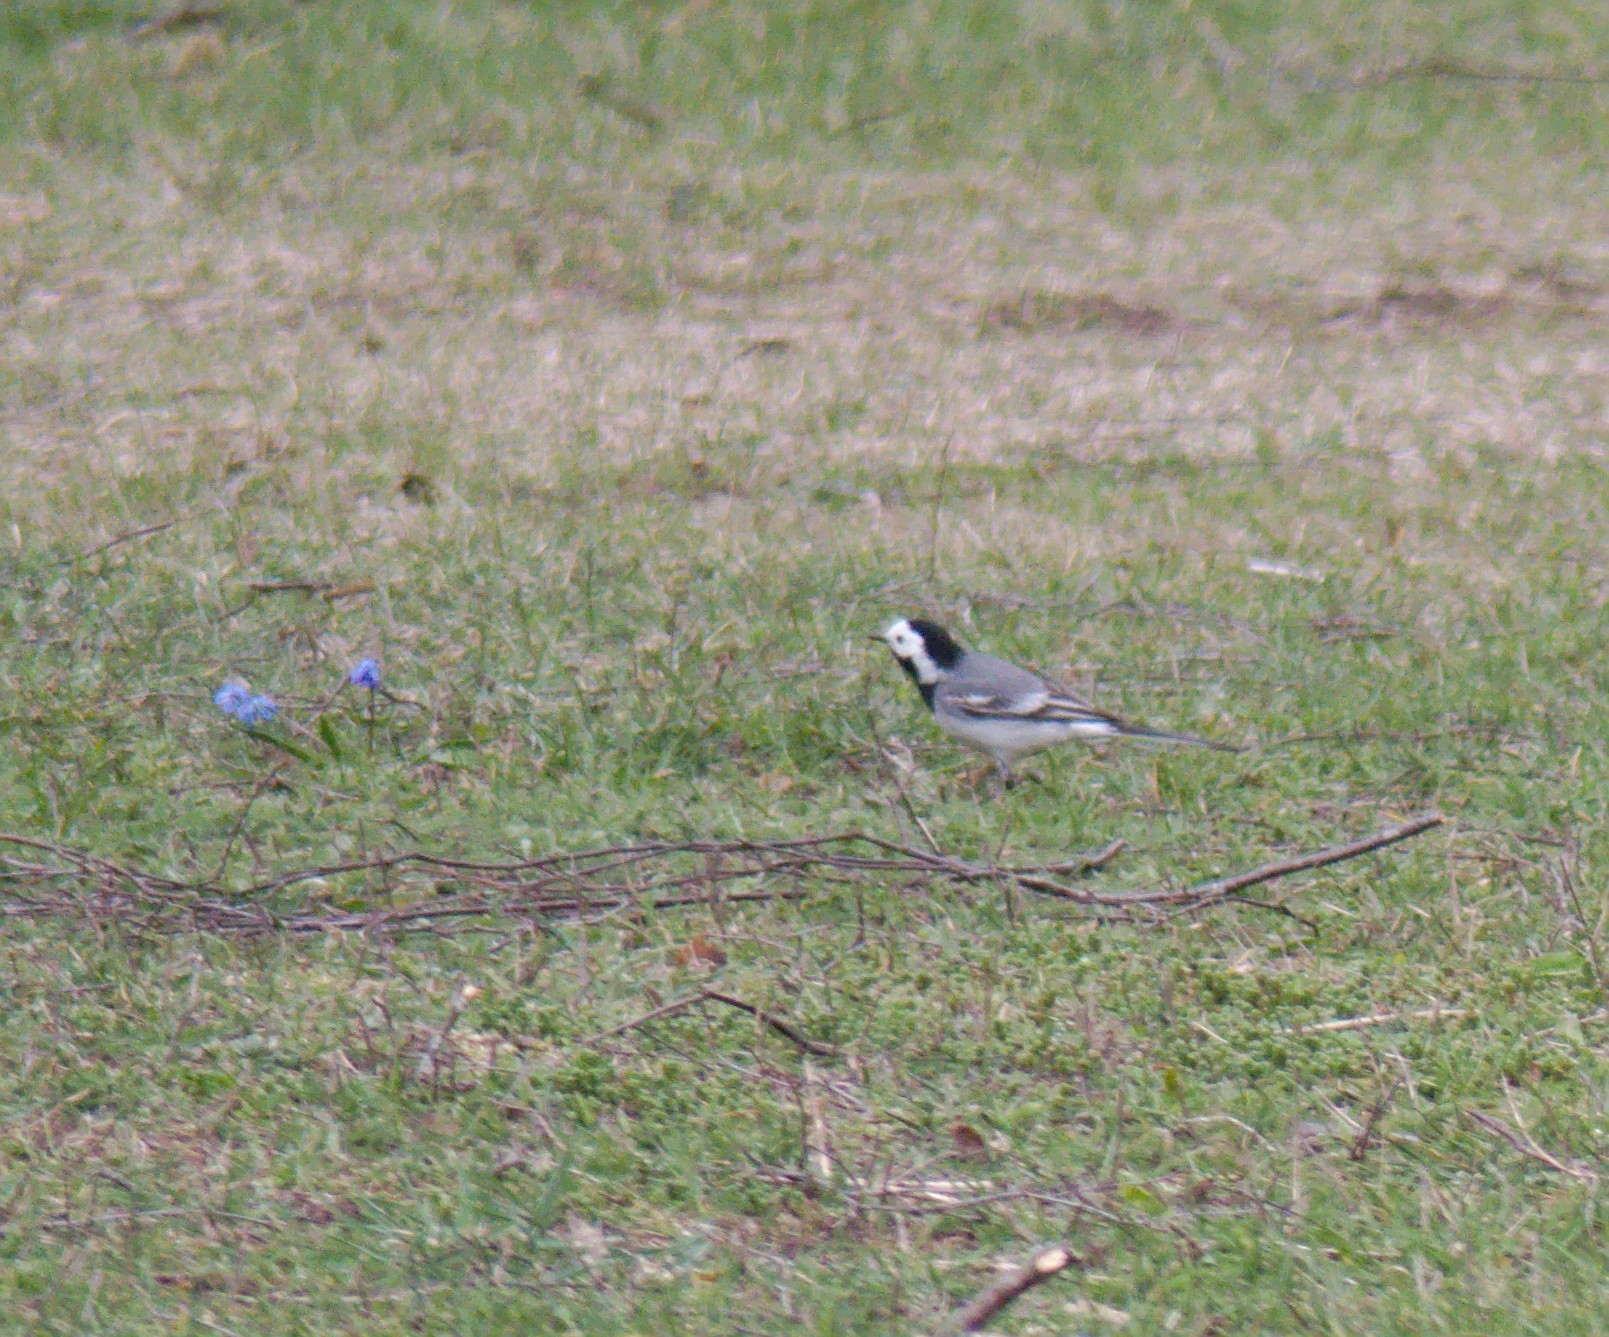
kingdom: Animalia
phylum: Chordata
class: Aves
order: Passeriformes
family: Motacillidae
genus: Motacilla
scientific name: Motacilla alba
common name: White wagtail
